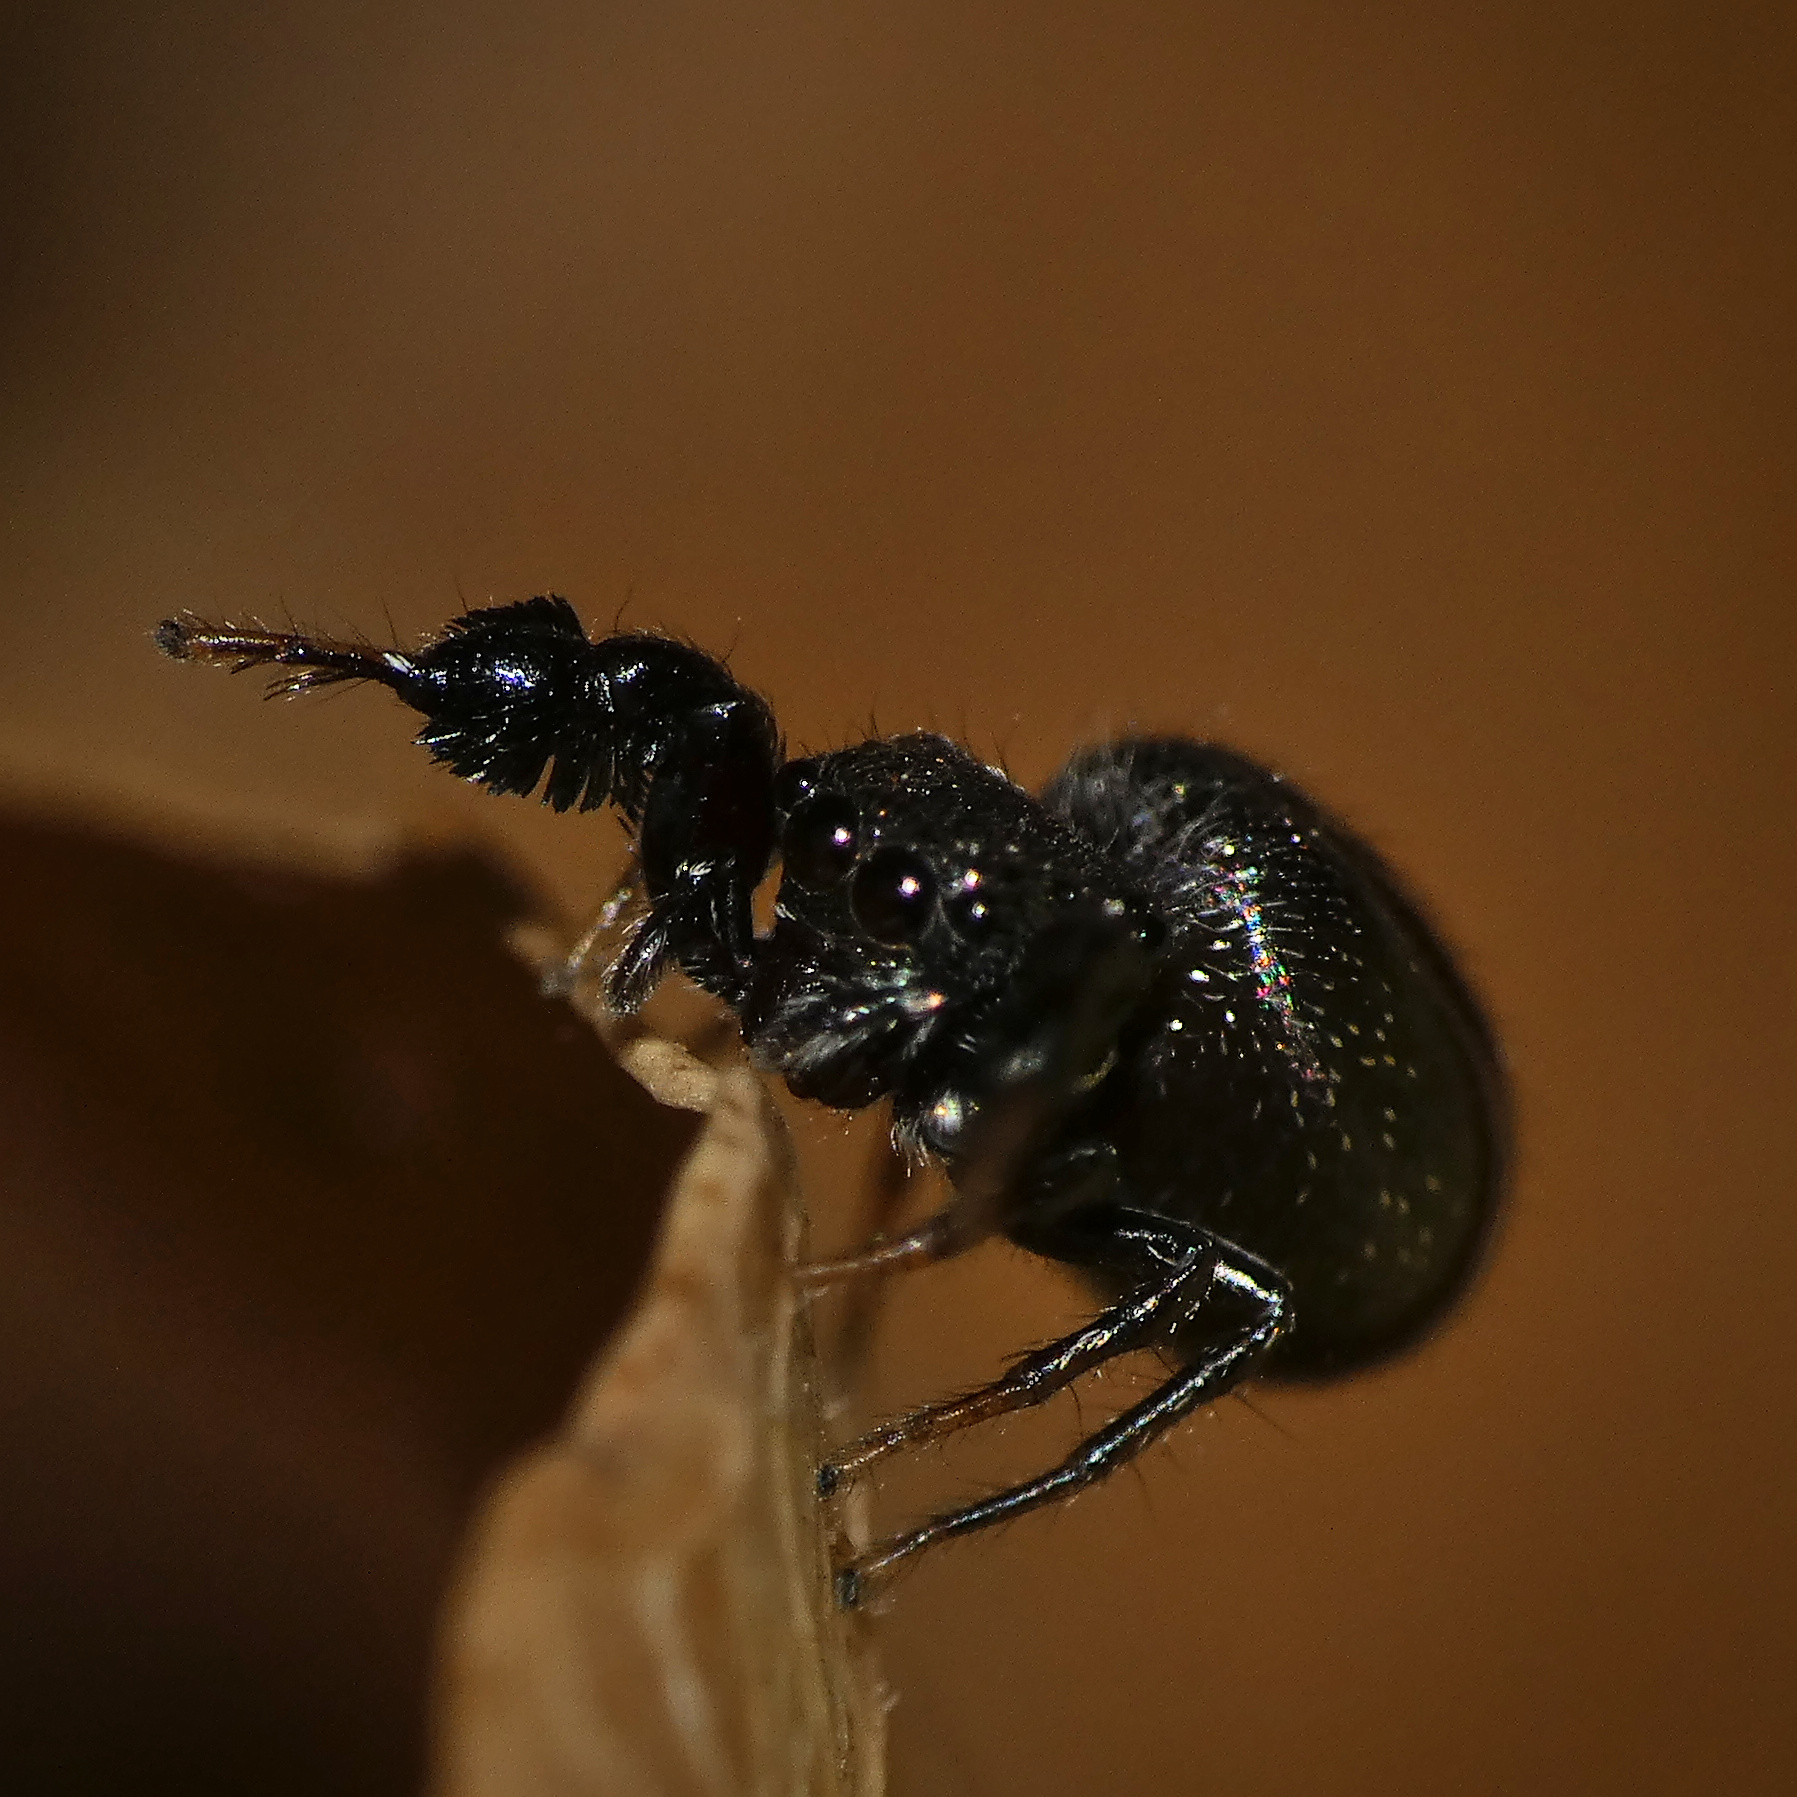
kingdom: Animalia
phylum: Arthropoda
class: Arachnida
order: Araneae
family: Salticidae
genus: Harmochirus
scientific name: Harmochirus luculentus
